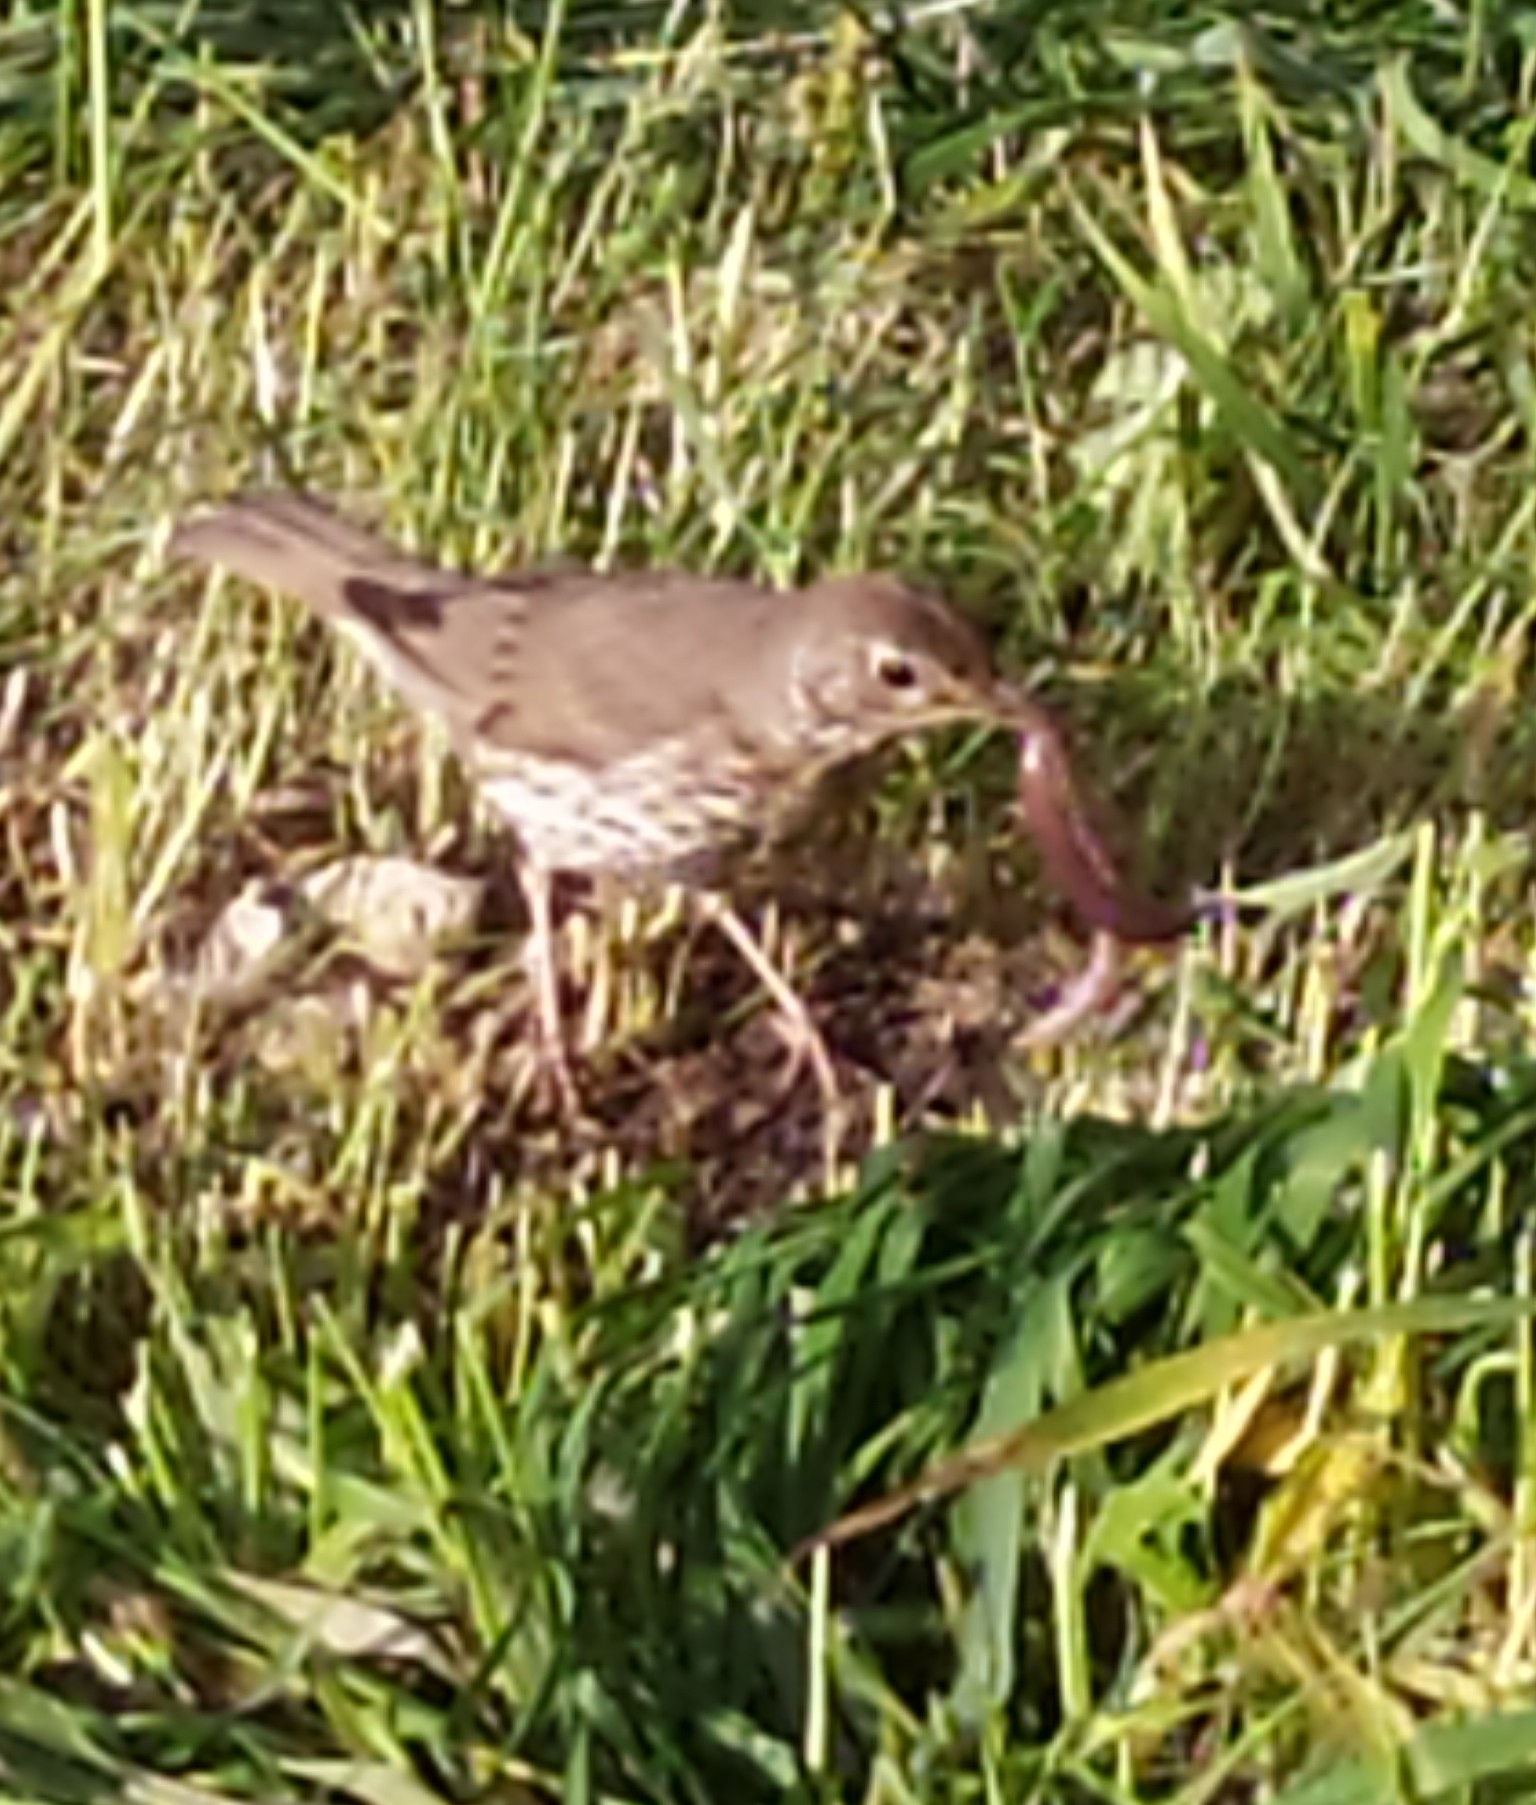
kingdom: Animalia
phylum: Chordata
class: Aves
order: Passeriformes
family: Turdidae
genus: Turdus
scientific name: Turdus philomelos
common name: Song thrush
